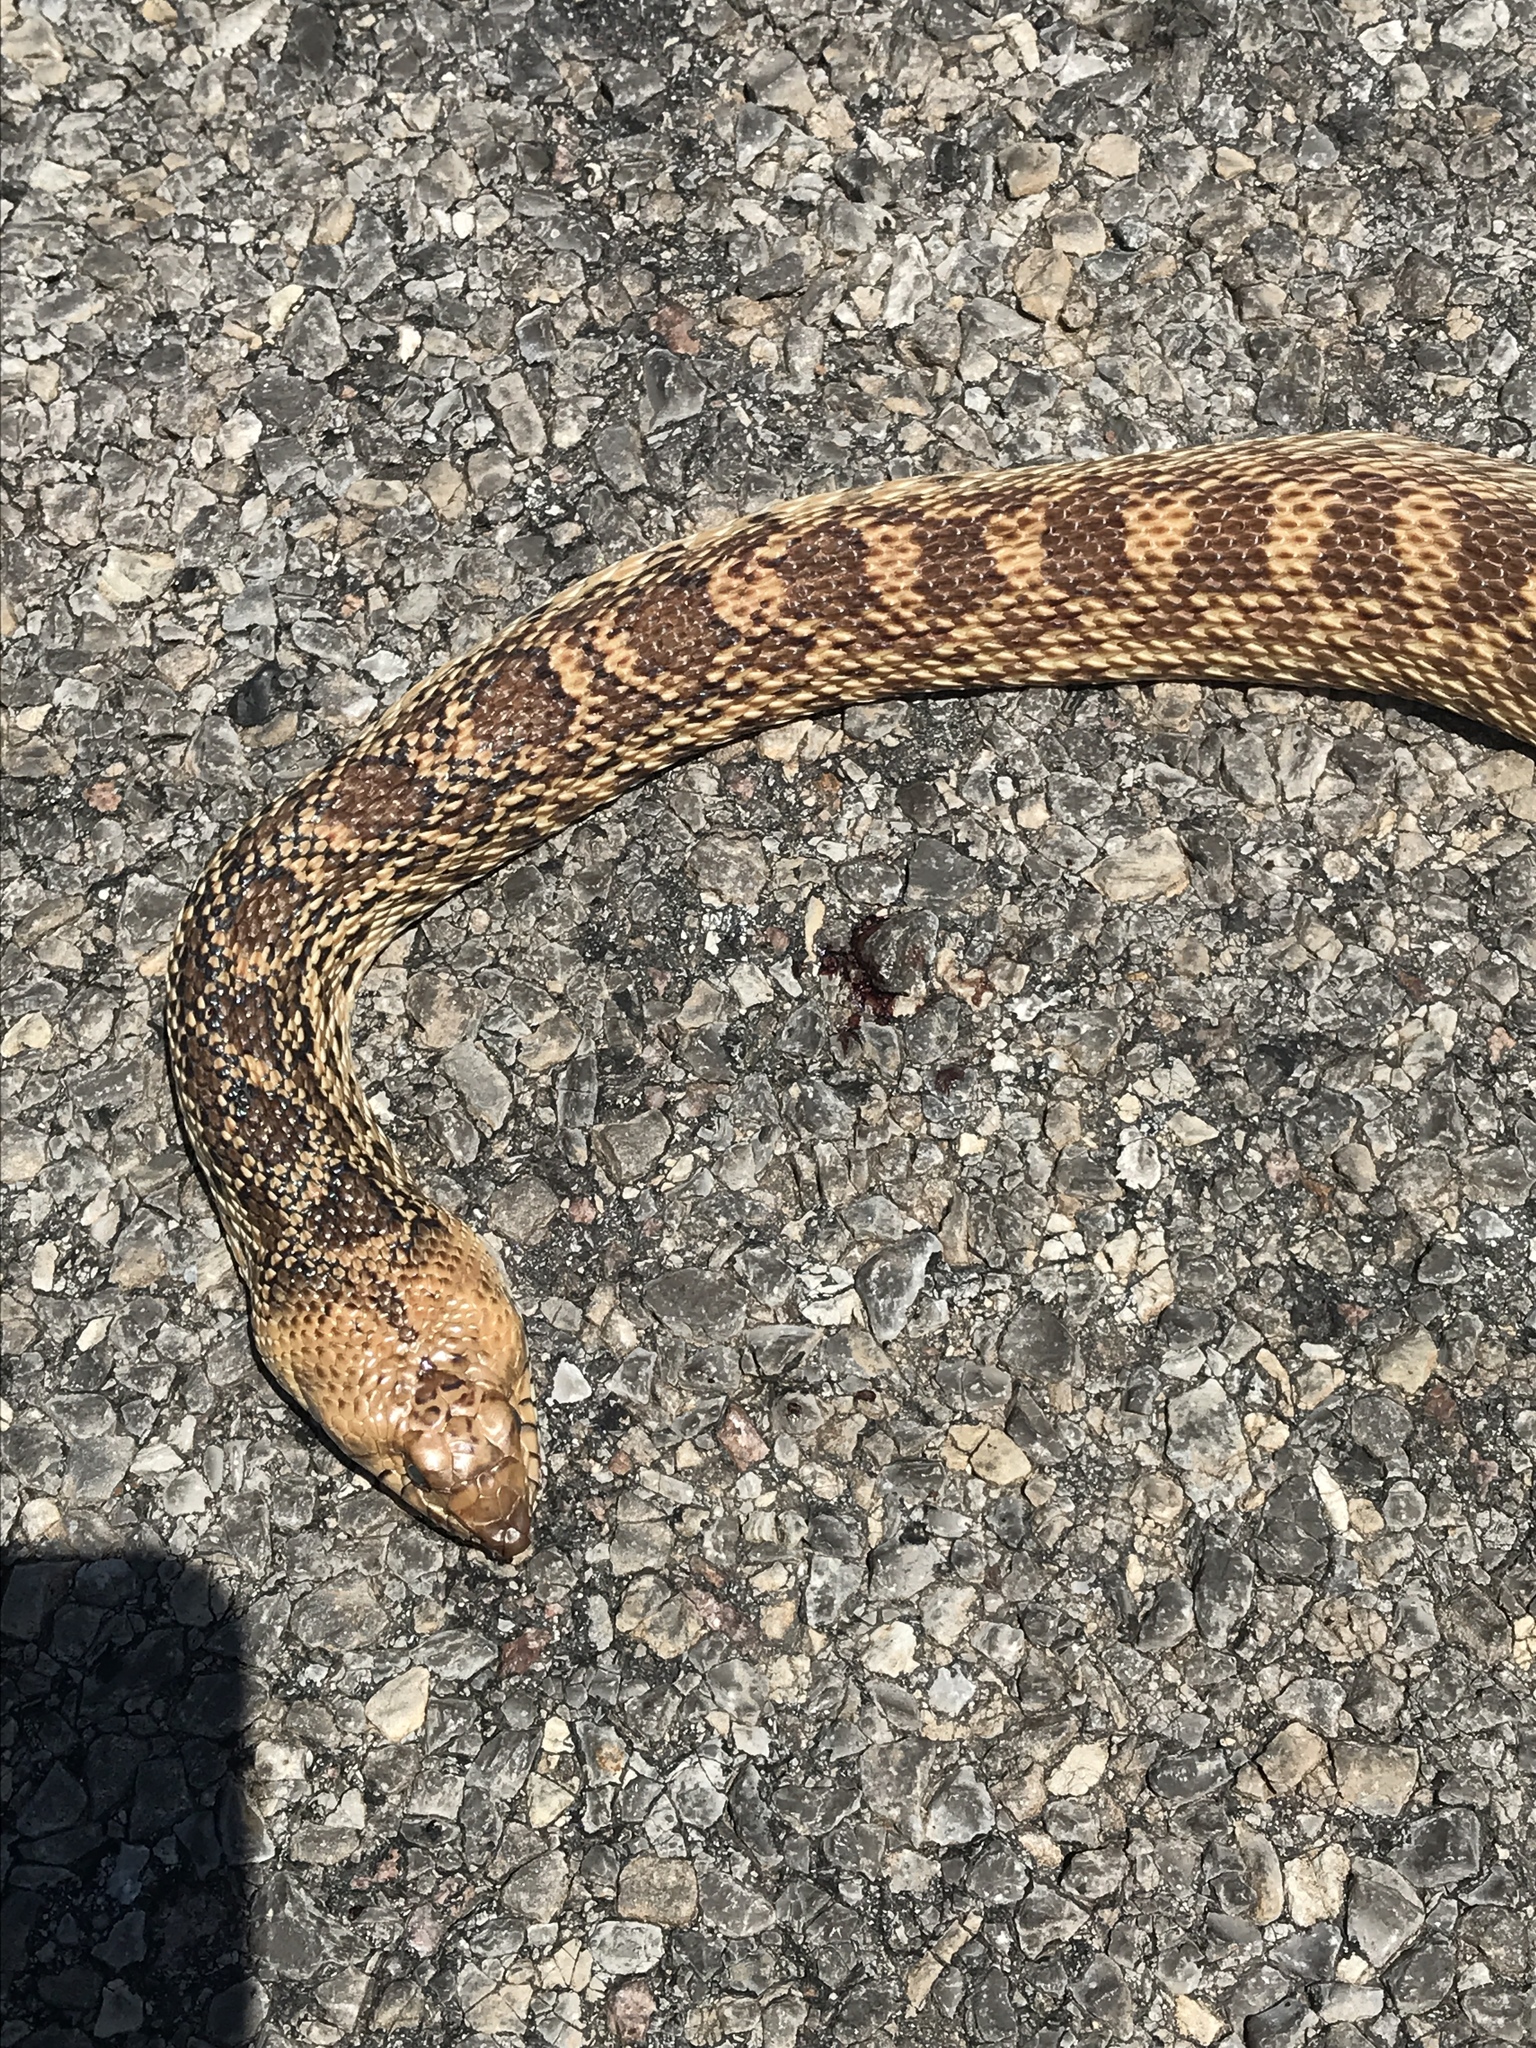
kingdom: Animalia
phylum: Chordata
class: Squamata
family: Colubridae
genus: Pituophis
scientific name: Pituophis catenifer
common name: Gopher snake
